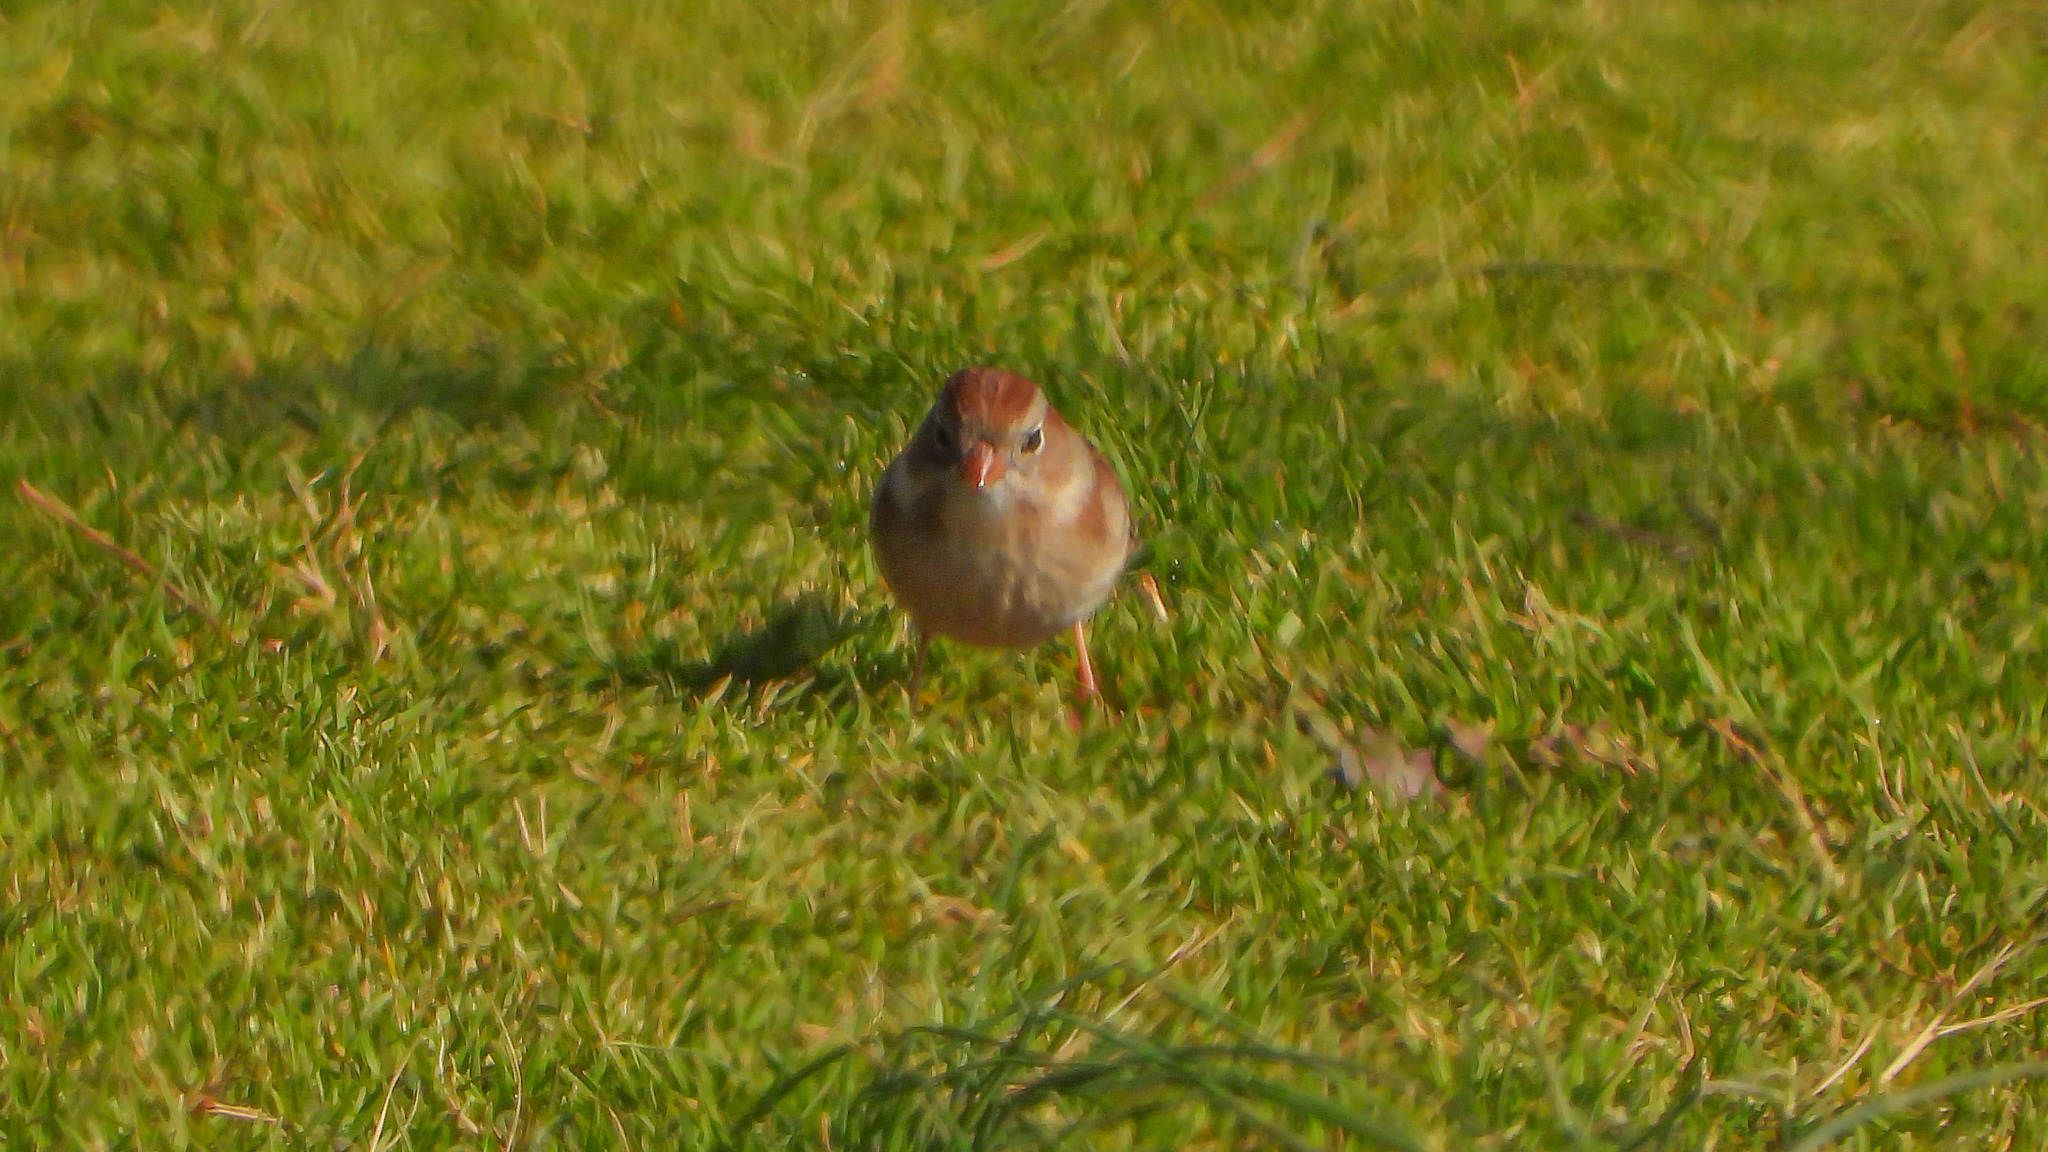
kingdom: Animalia
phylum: Chordata
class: Aves
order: Passeriformes
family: Passerellidae
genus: Spizella
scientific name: Spizella pusilla
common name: Field sparrow
